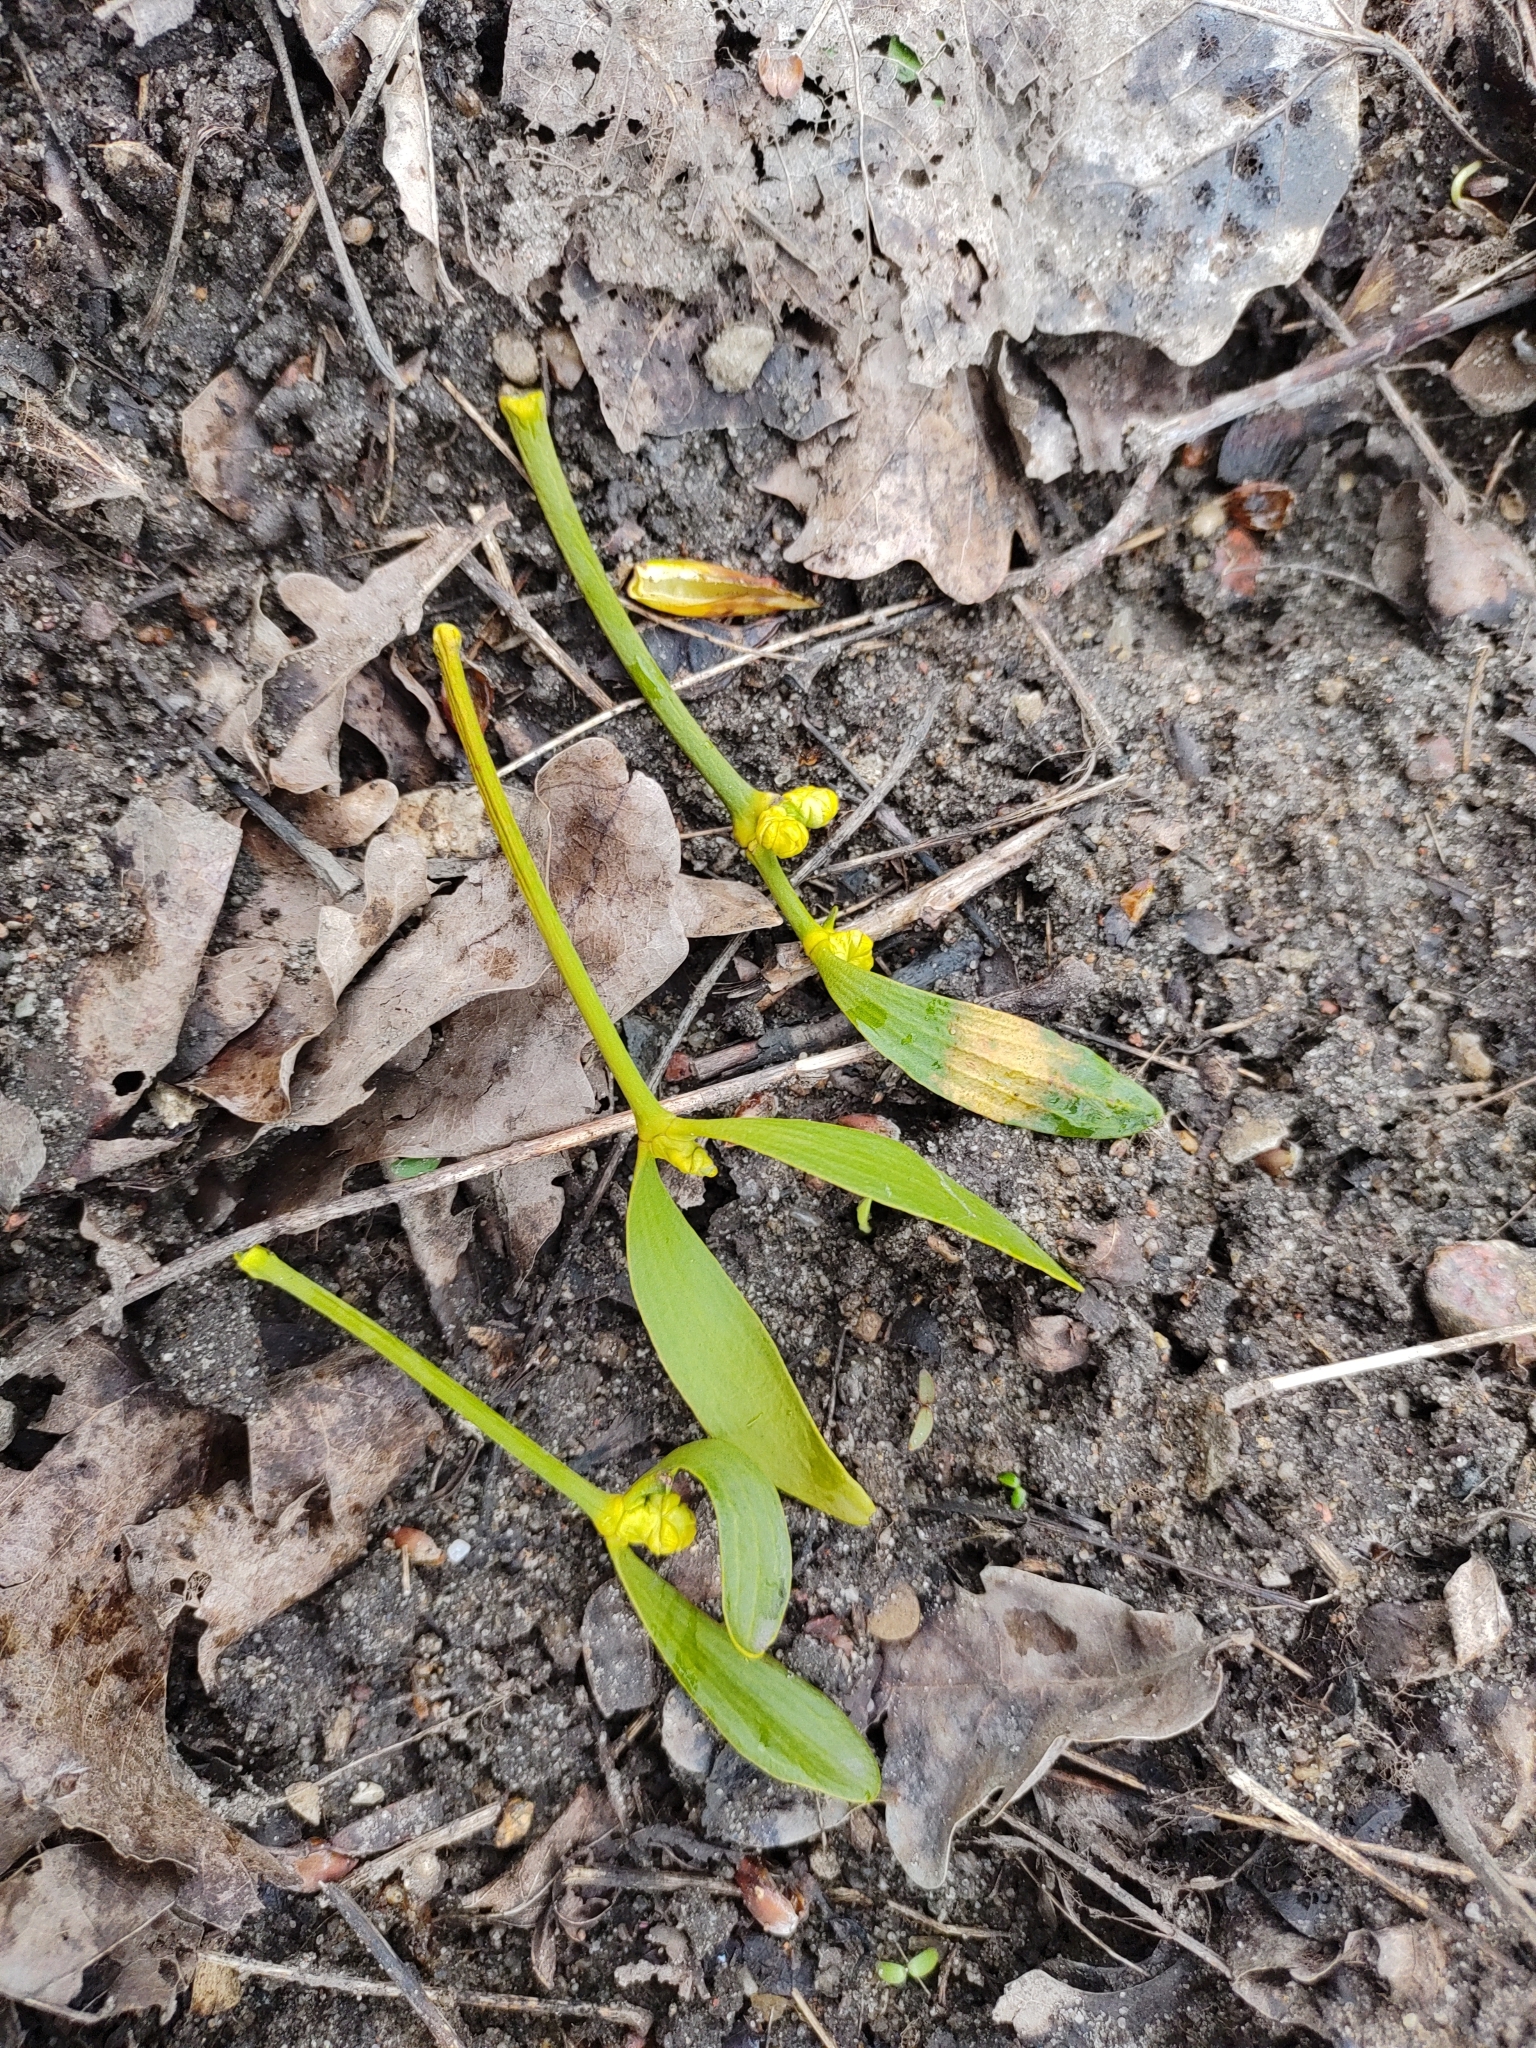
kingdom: Plantae
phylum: Tracheophyta
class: Magnoliopsida
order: Santalales
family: Viscaceae
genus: Viscum
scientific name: Viscum album
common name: Mistletoe
